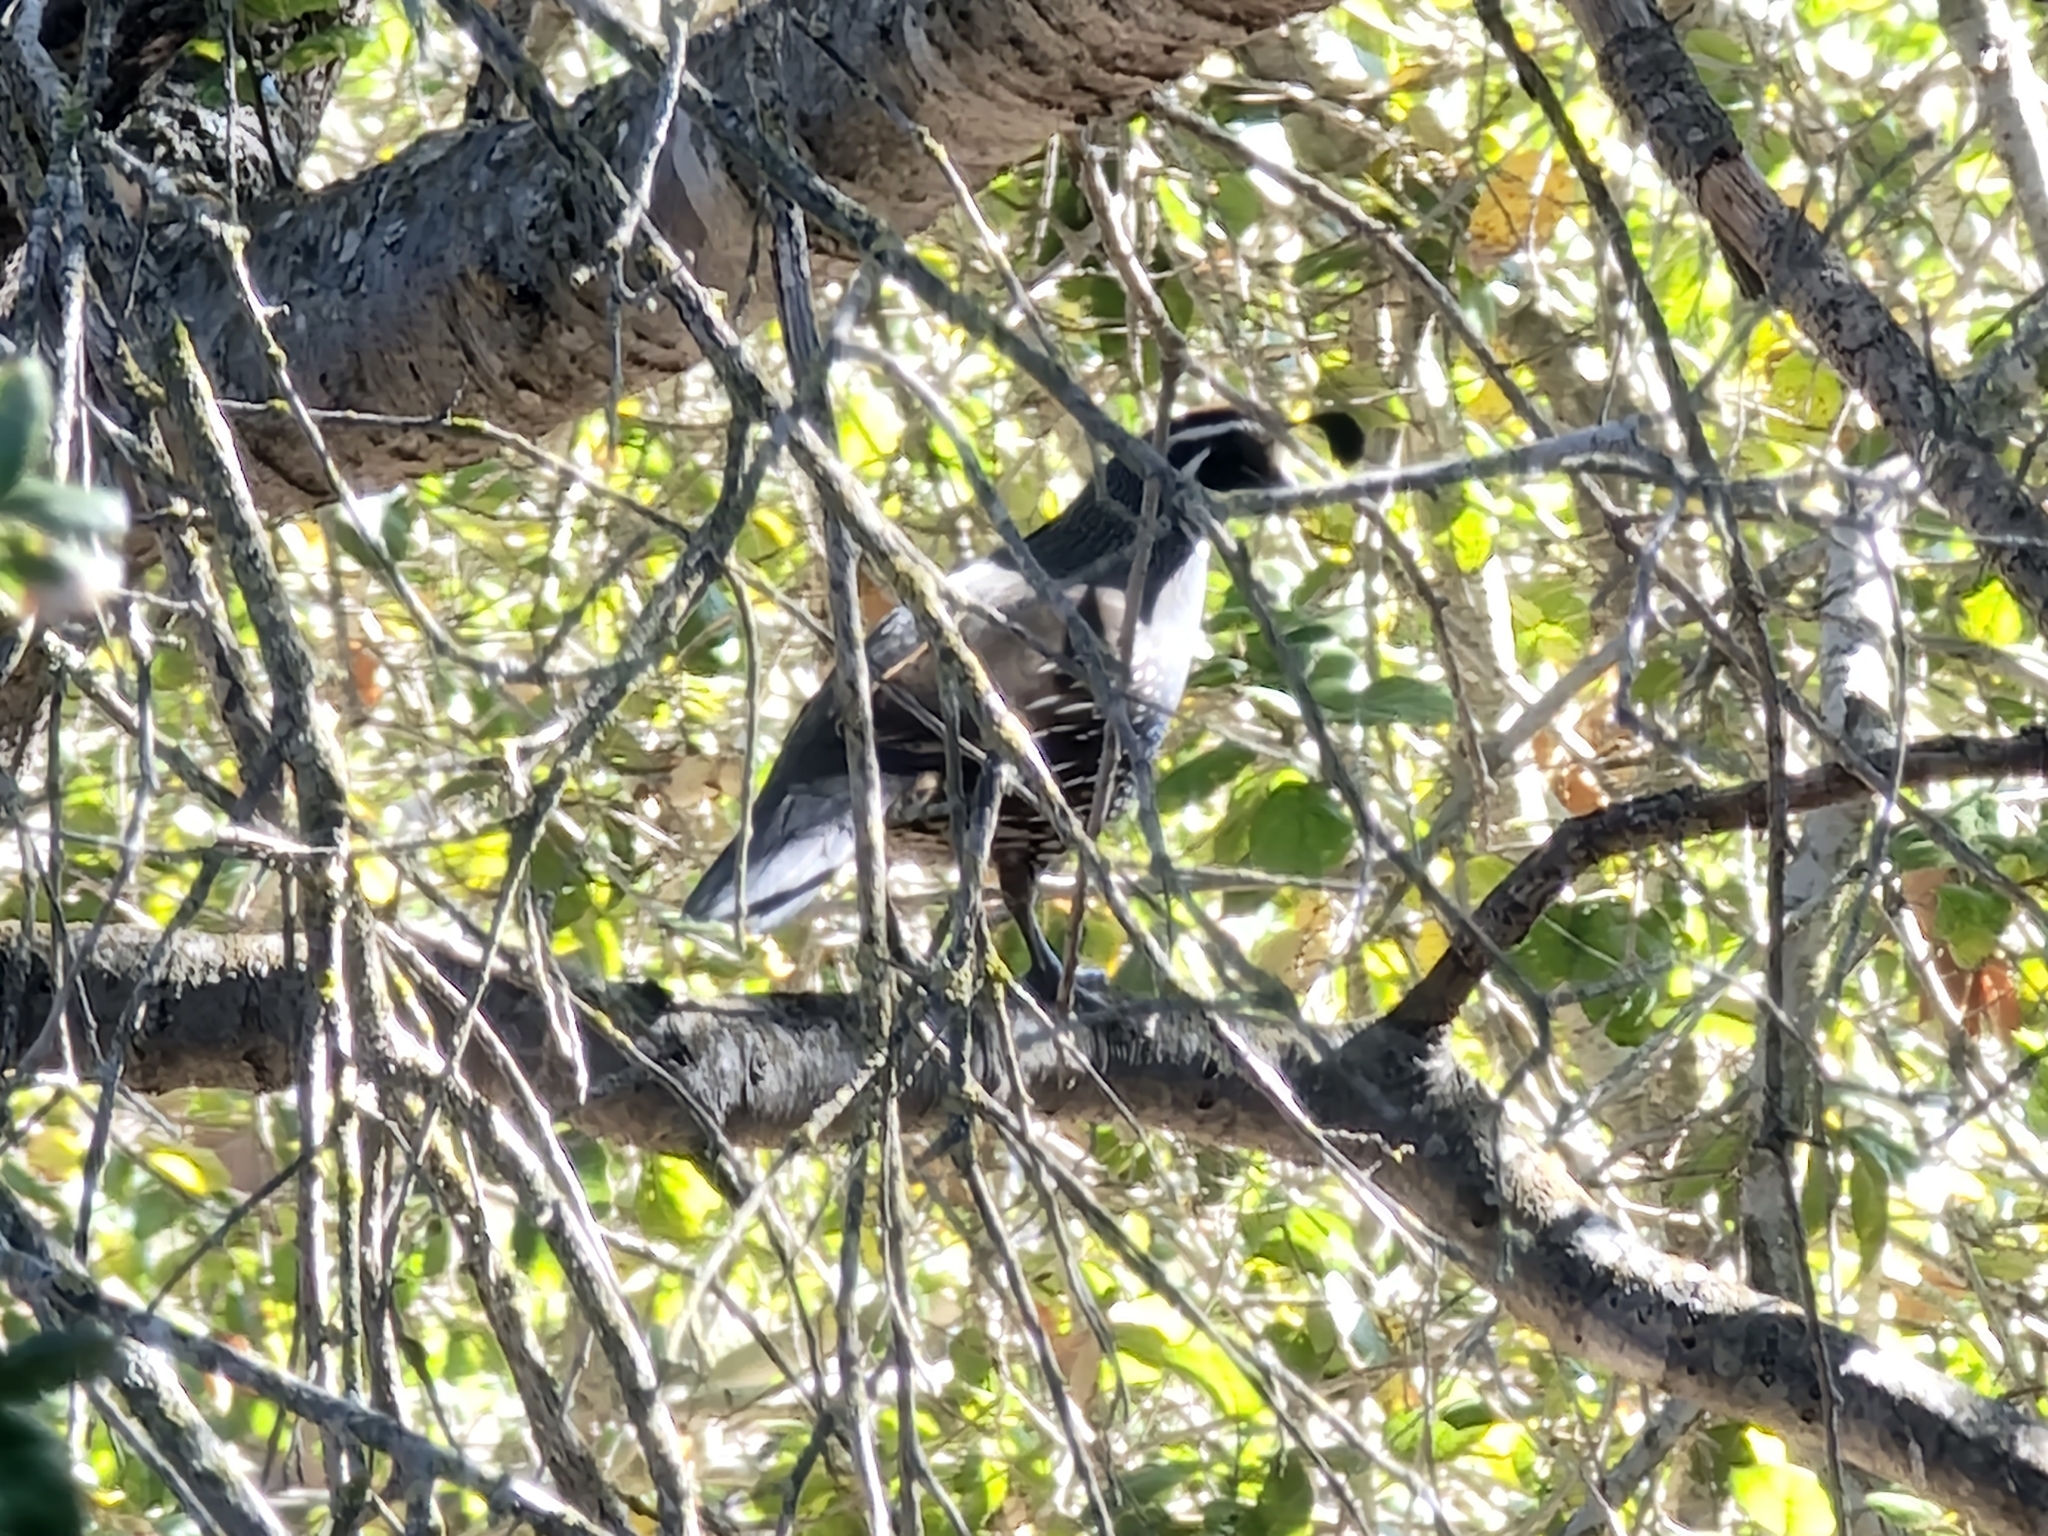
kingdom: Animalia
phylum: Chordata
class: Aves
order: Galliformes
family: Odontophoridae
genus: Callipepla
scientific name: Callipepla californica
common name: California quail
